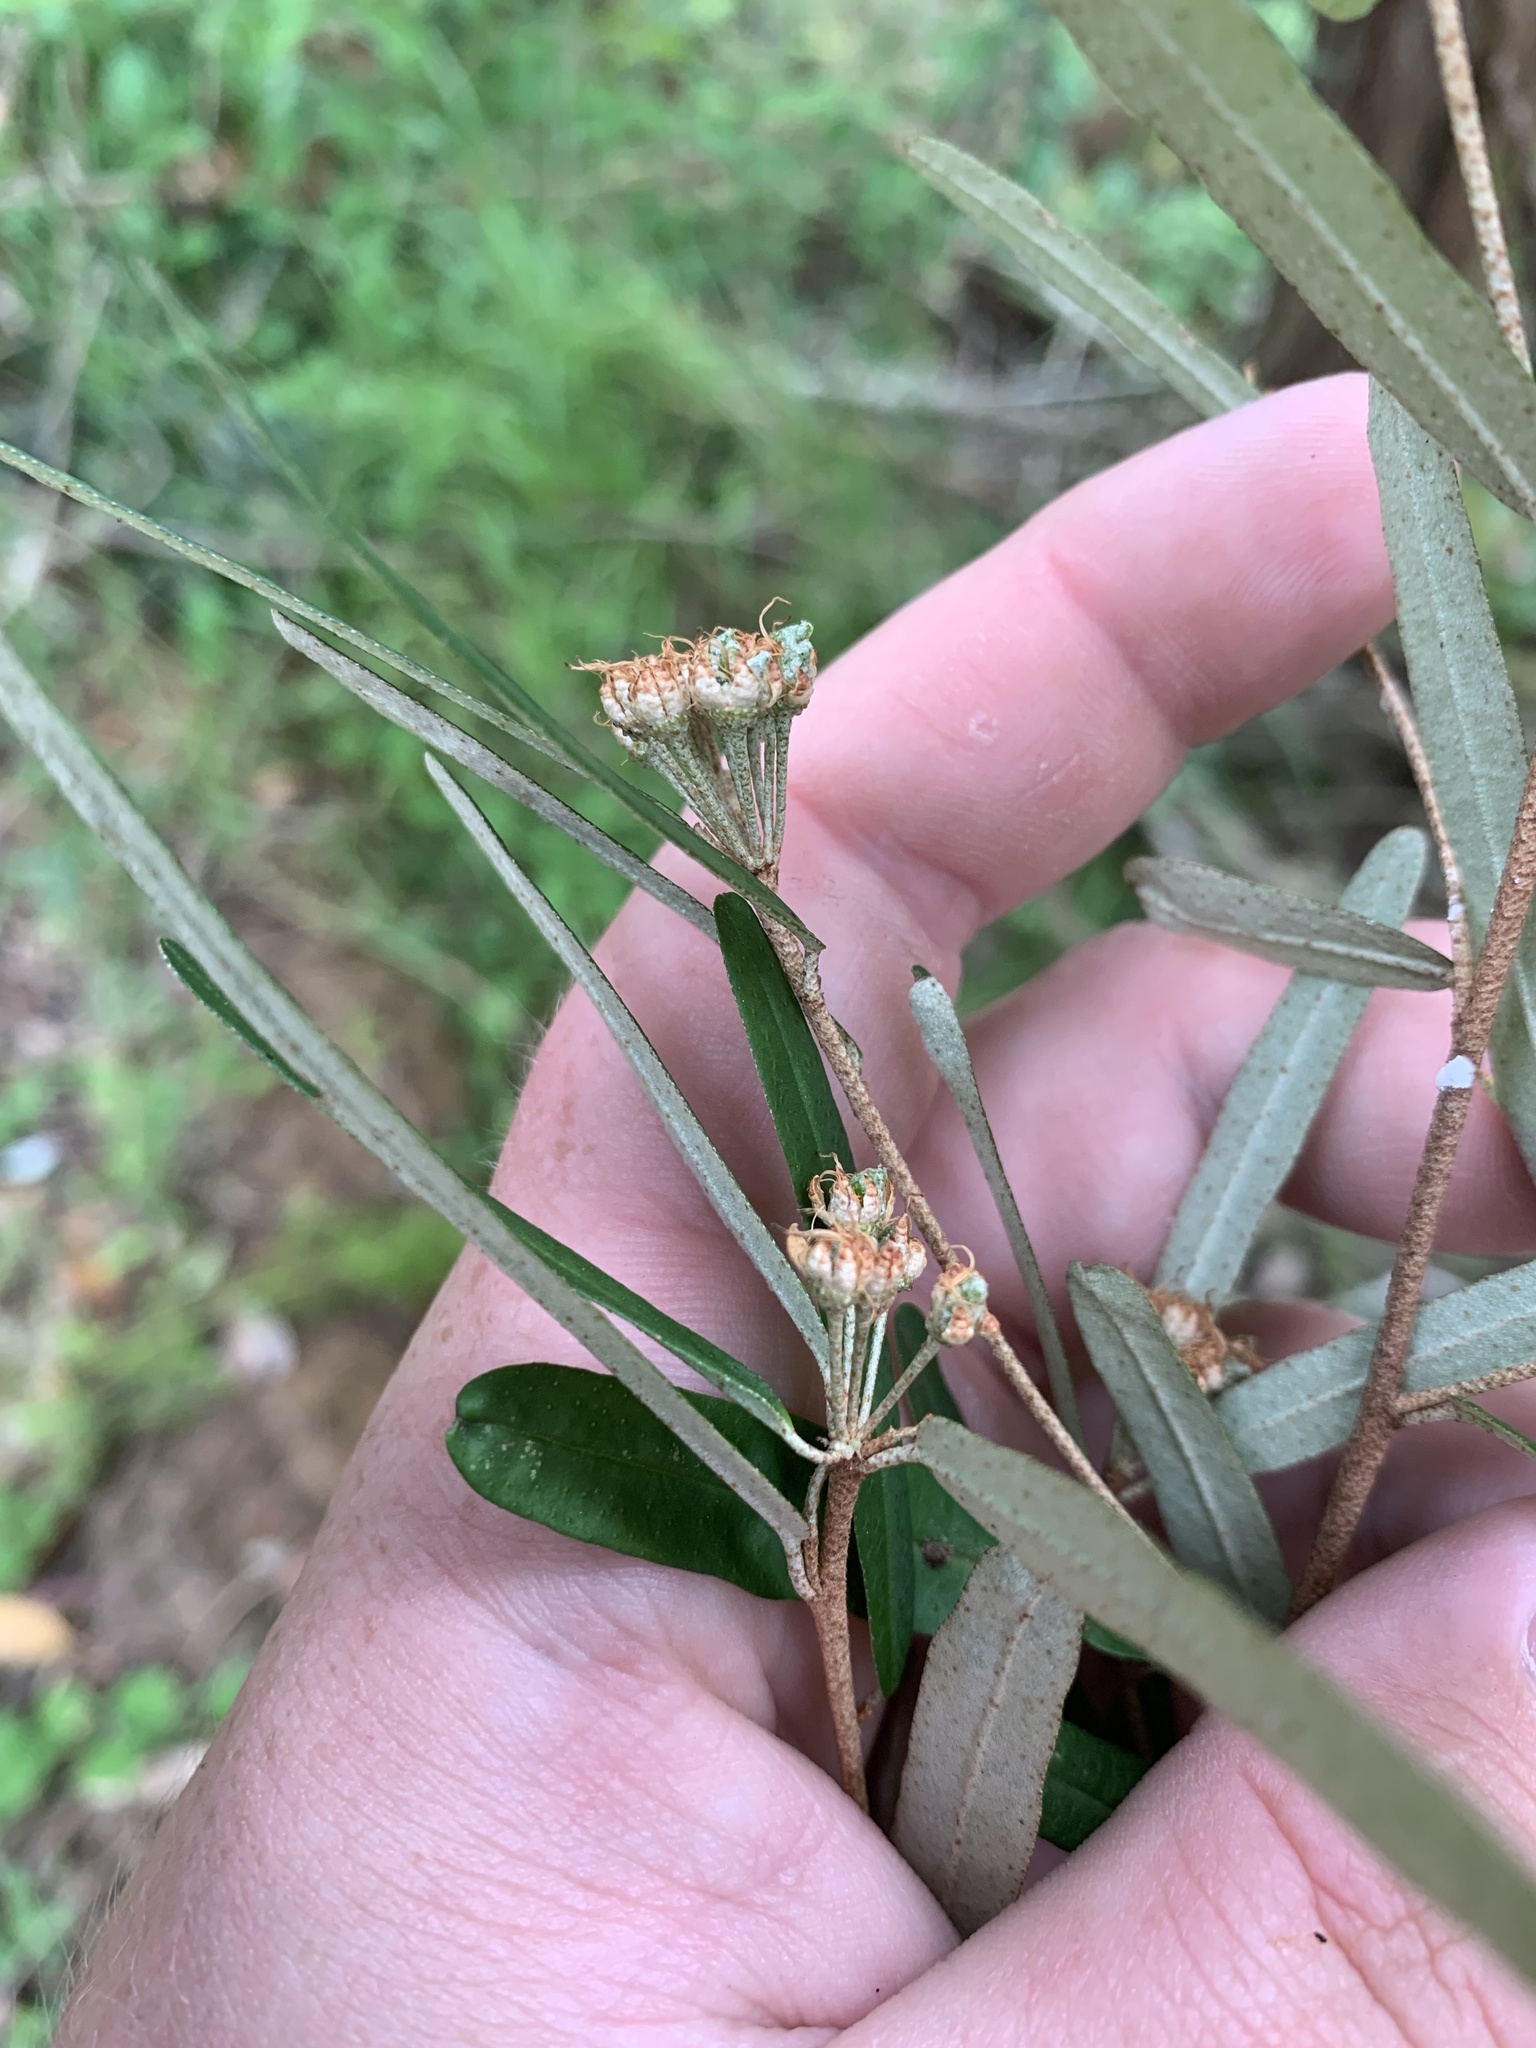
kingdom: Plantae
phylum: Tracheophyta
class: Magnoliopsida
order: Sapindales
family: Rutaceae
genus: Phebalium
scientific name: Phebalium squamulosum
